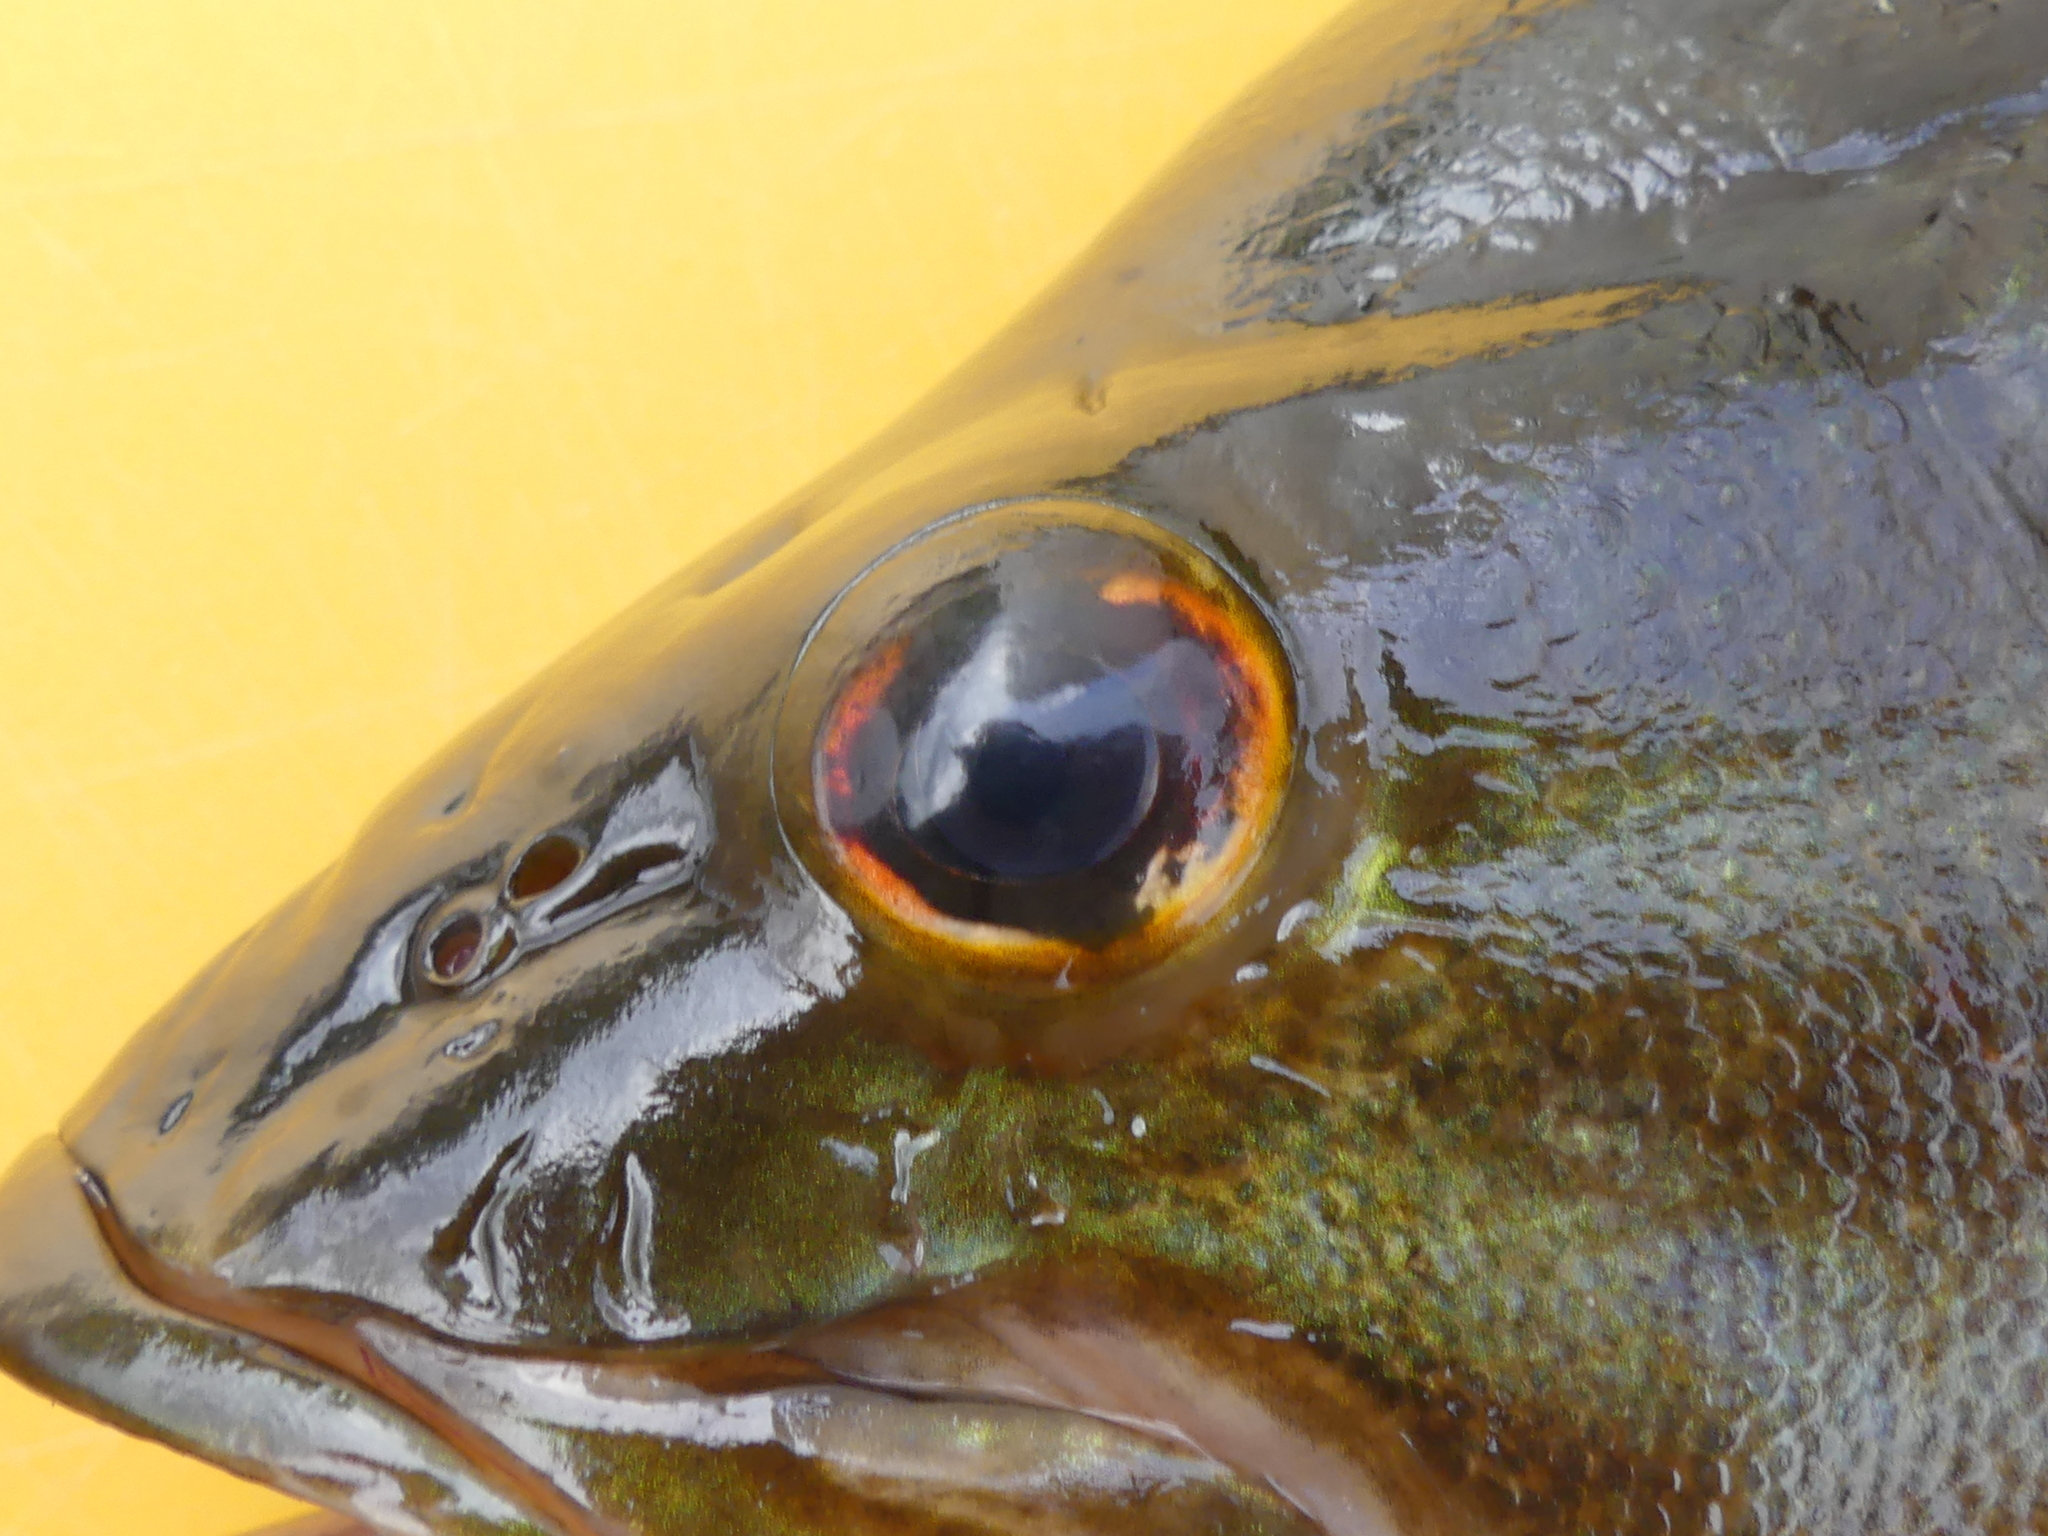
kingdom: Animalia
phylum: Chordata
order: Perciformes
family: Centrarchidae
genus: Micropterus
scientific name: Micropterus dolomieu
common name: Smallmouth bass
